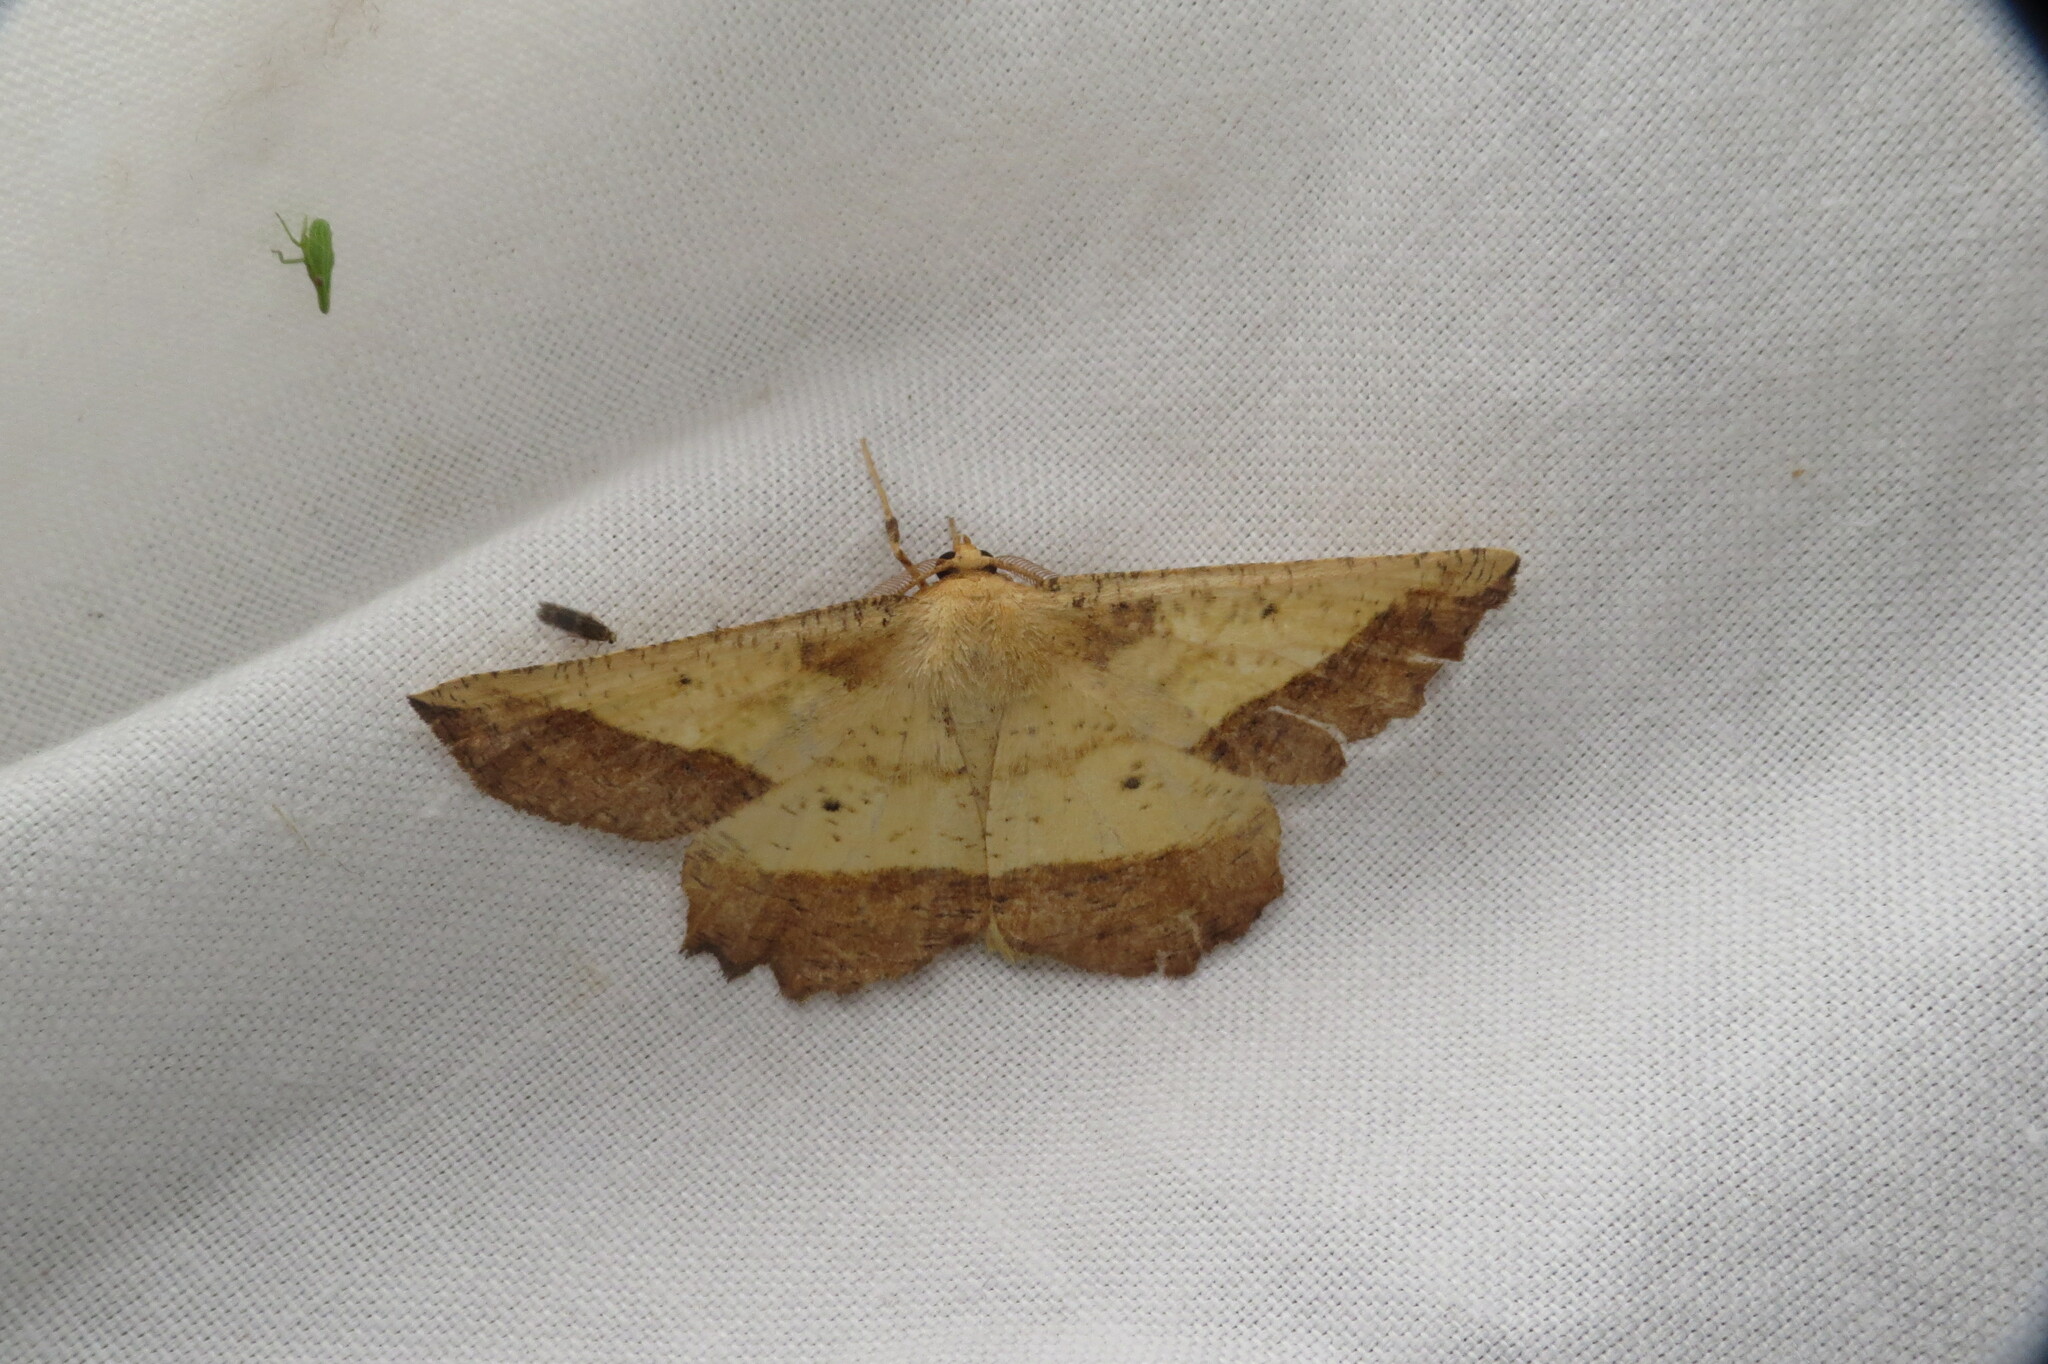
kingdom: Animalia
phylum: Arthropoda
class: Insecta
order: Lepidoptera
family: Geometridae
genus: Euchlaena
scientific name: Euchlaena serrata
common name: Saw wing
